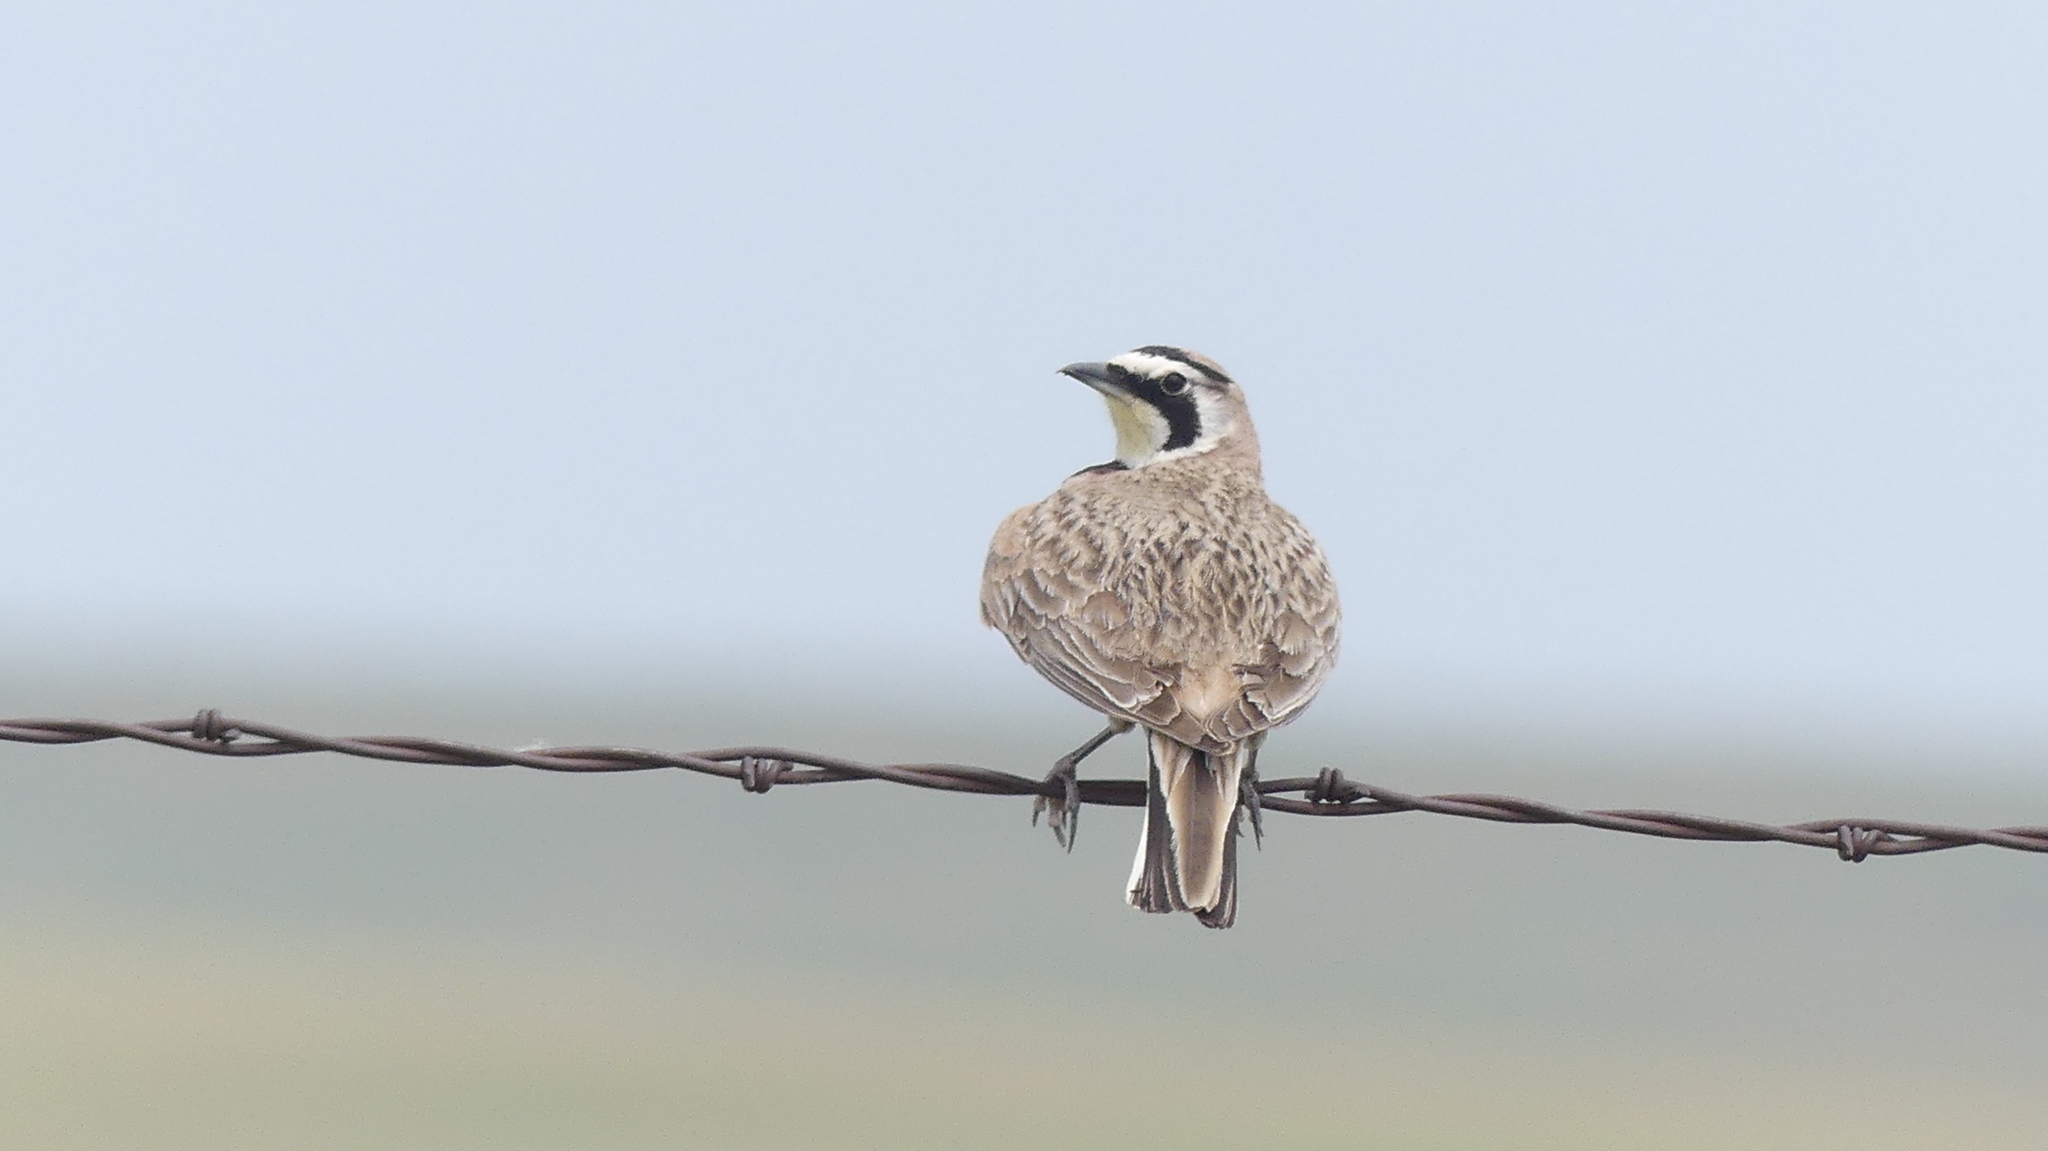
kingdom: Animalia
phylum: Chordata
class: Aves
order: Passeriformes
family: Alaudidae
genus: Eremophila
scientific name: Eremophila alpestris
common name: Horned lark
